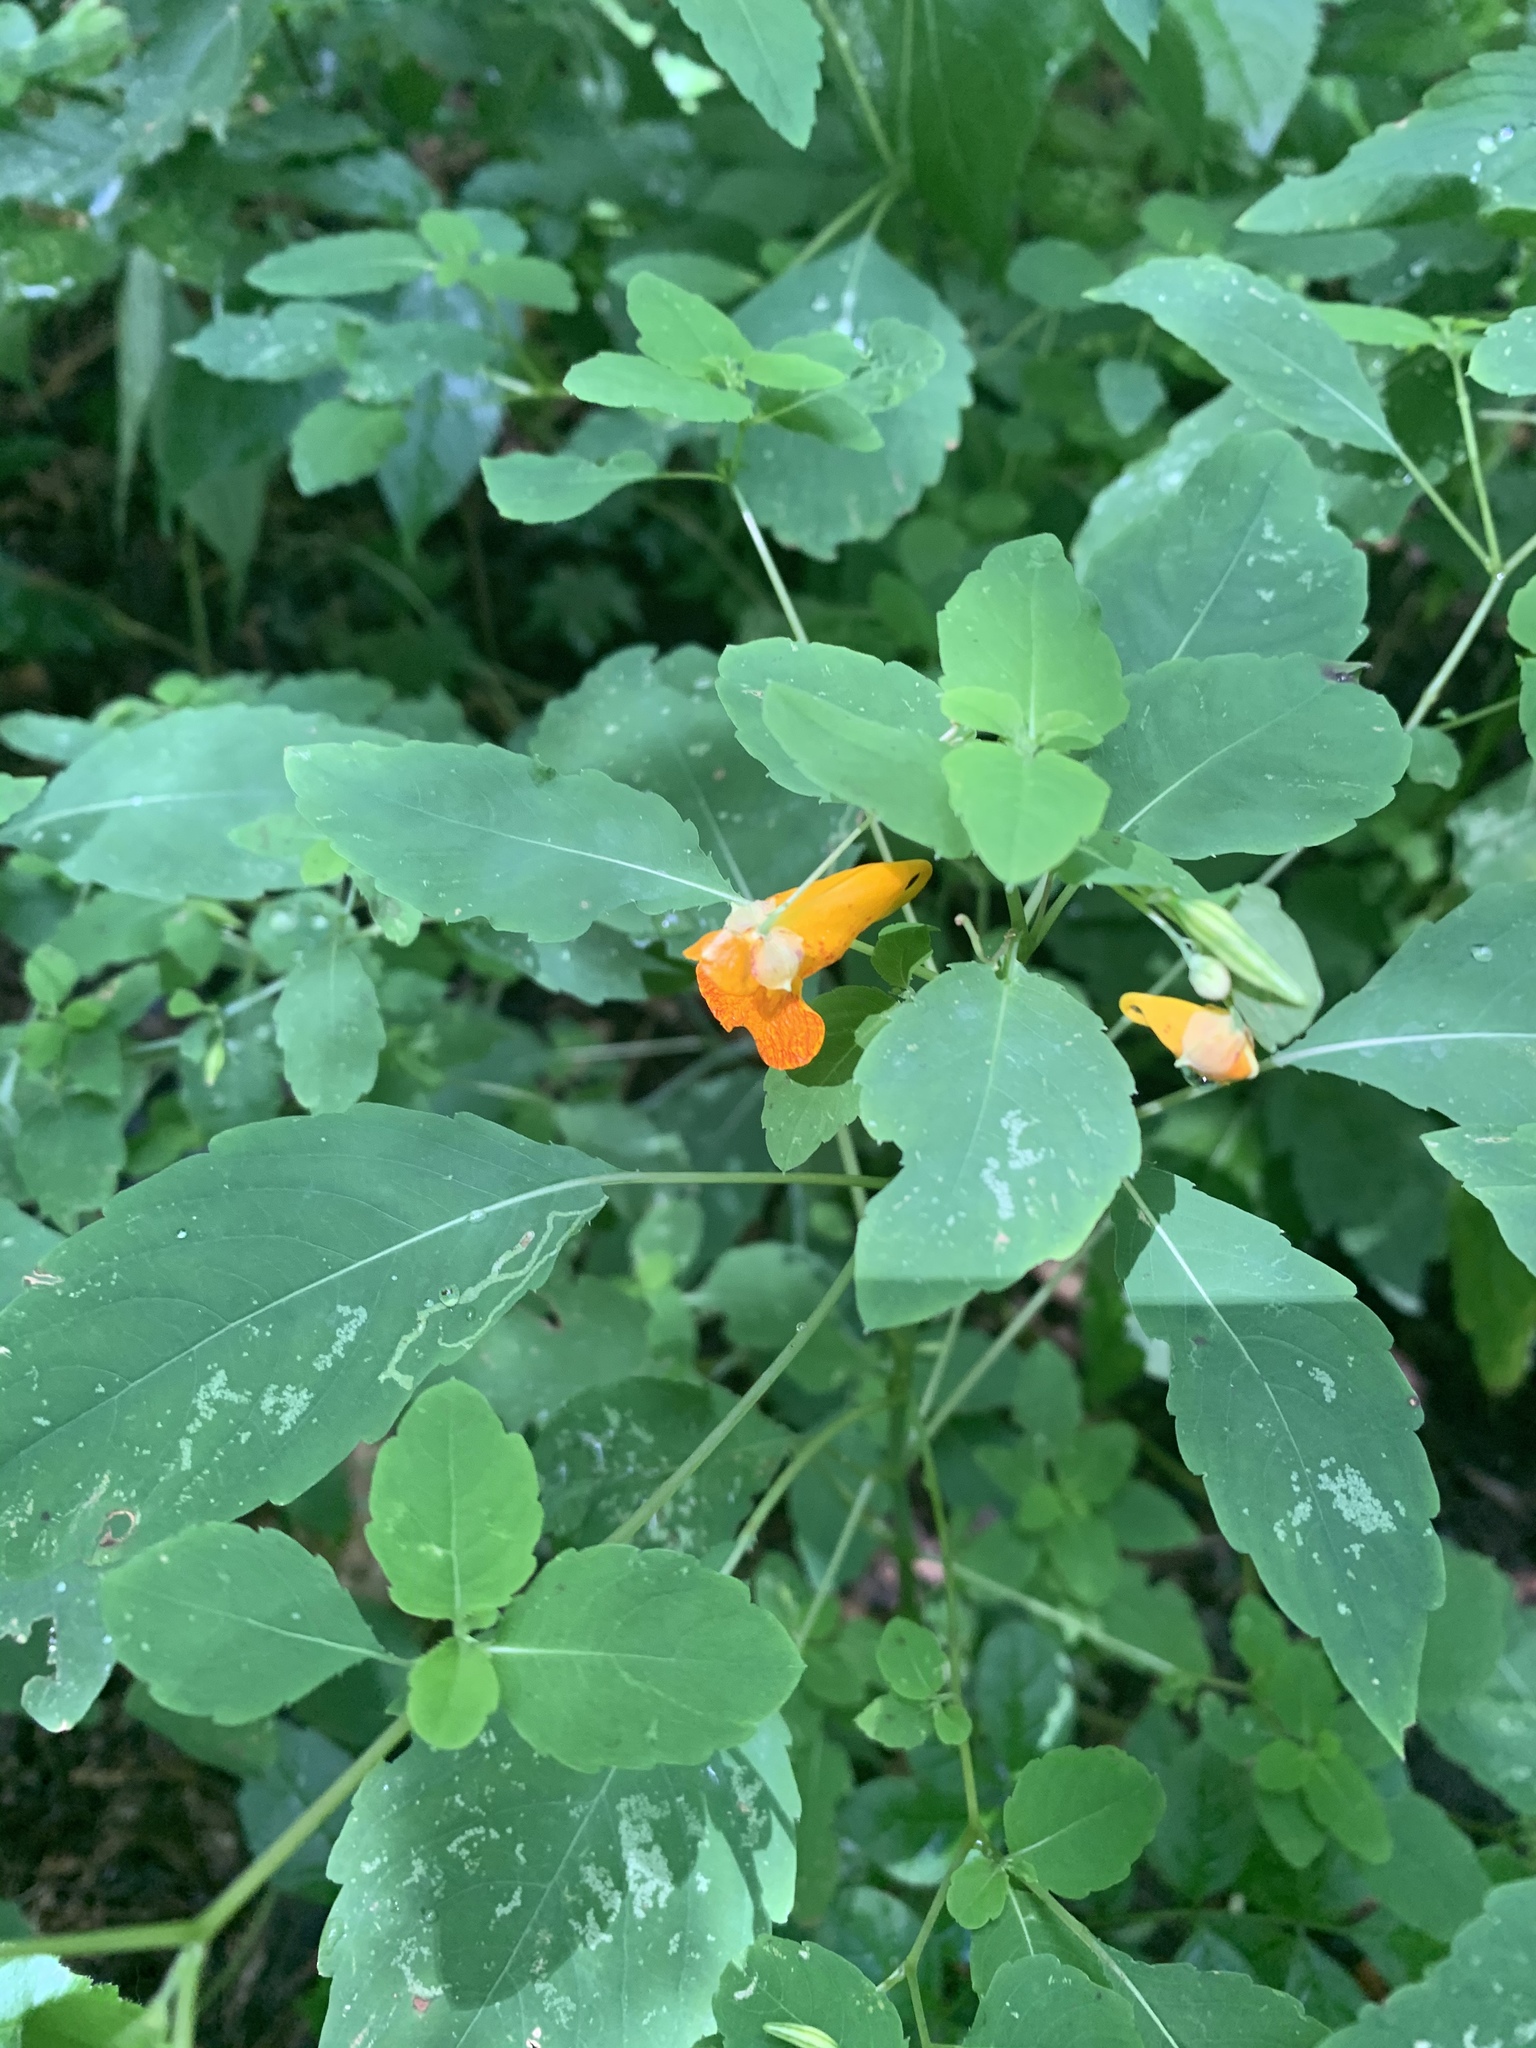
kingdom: Plantae
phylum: Tracheophyta
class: Magnoliopsida
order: Ericales
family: Balsaminaceae
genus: Impatiens
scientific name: Impatiens capensis
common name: Orange balsam
